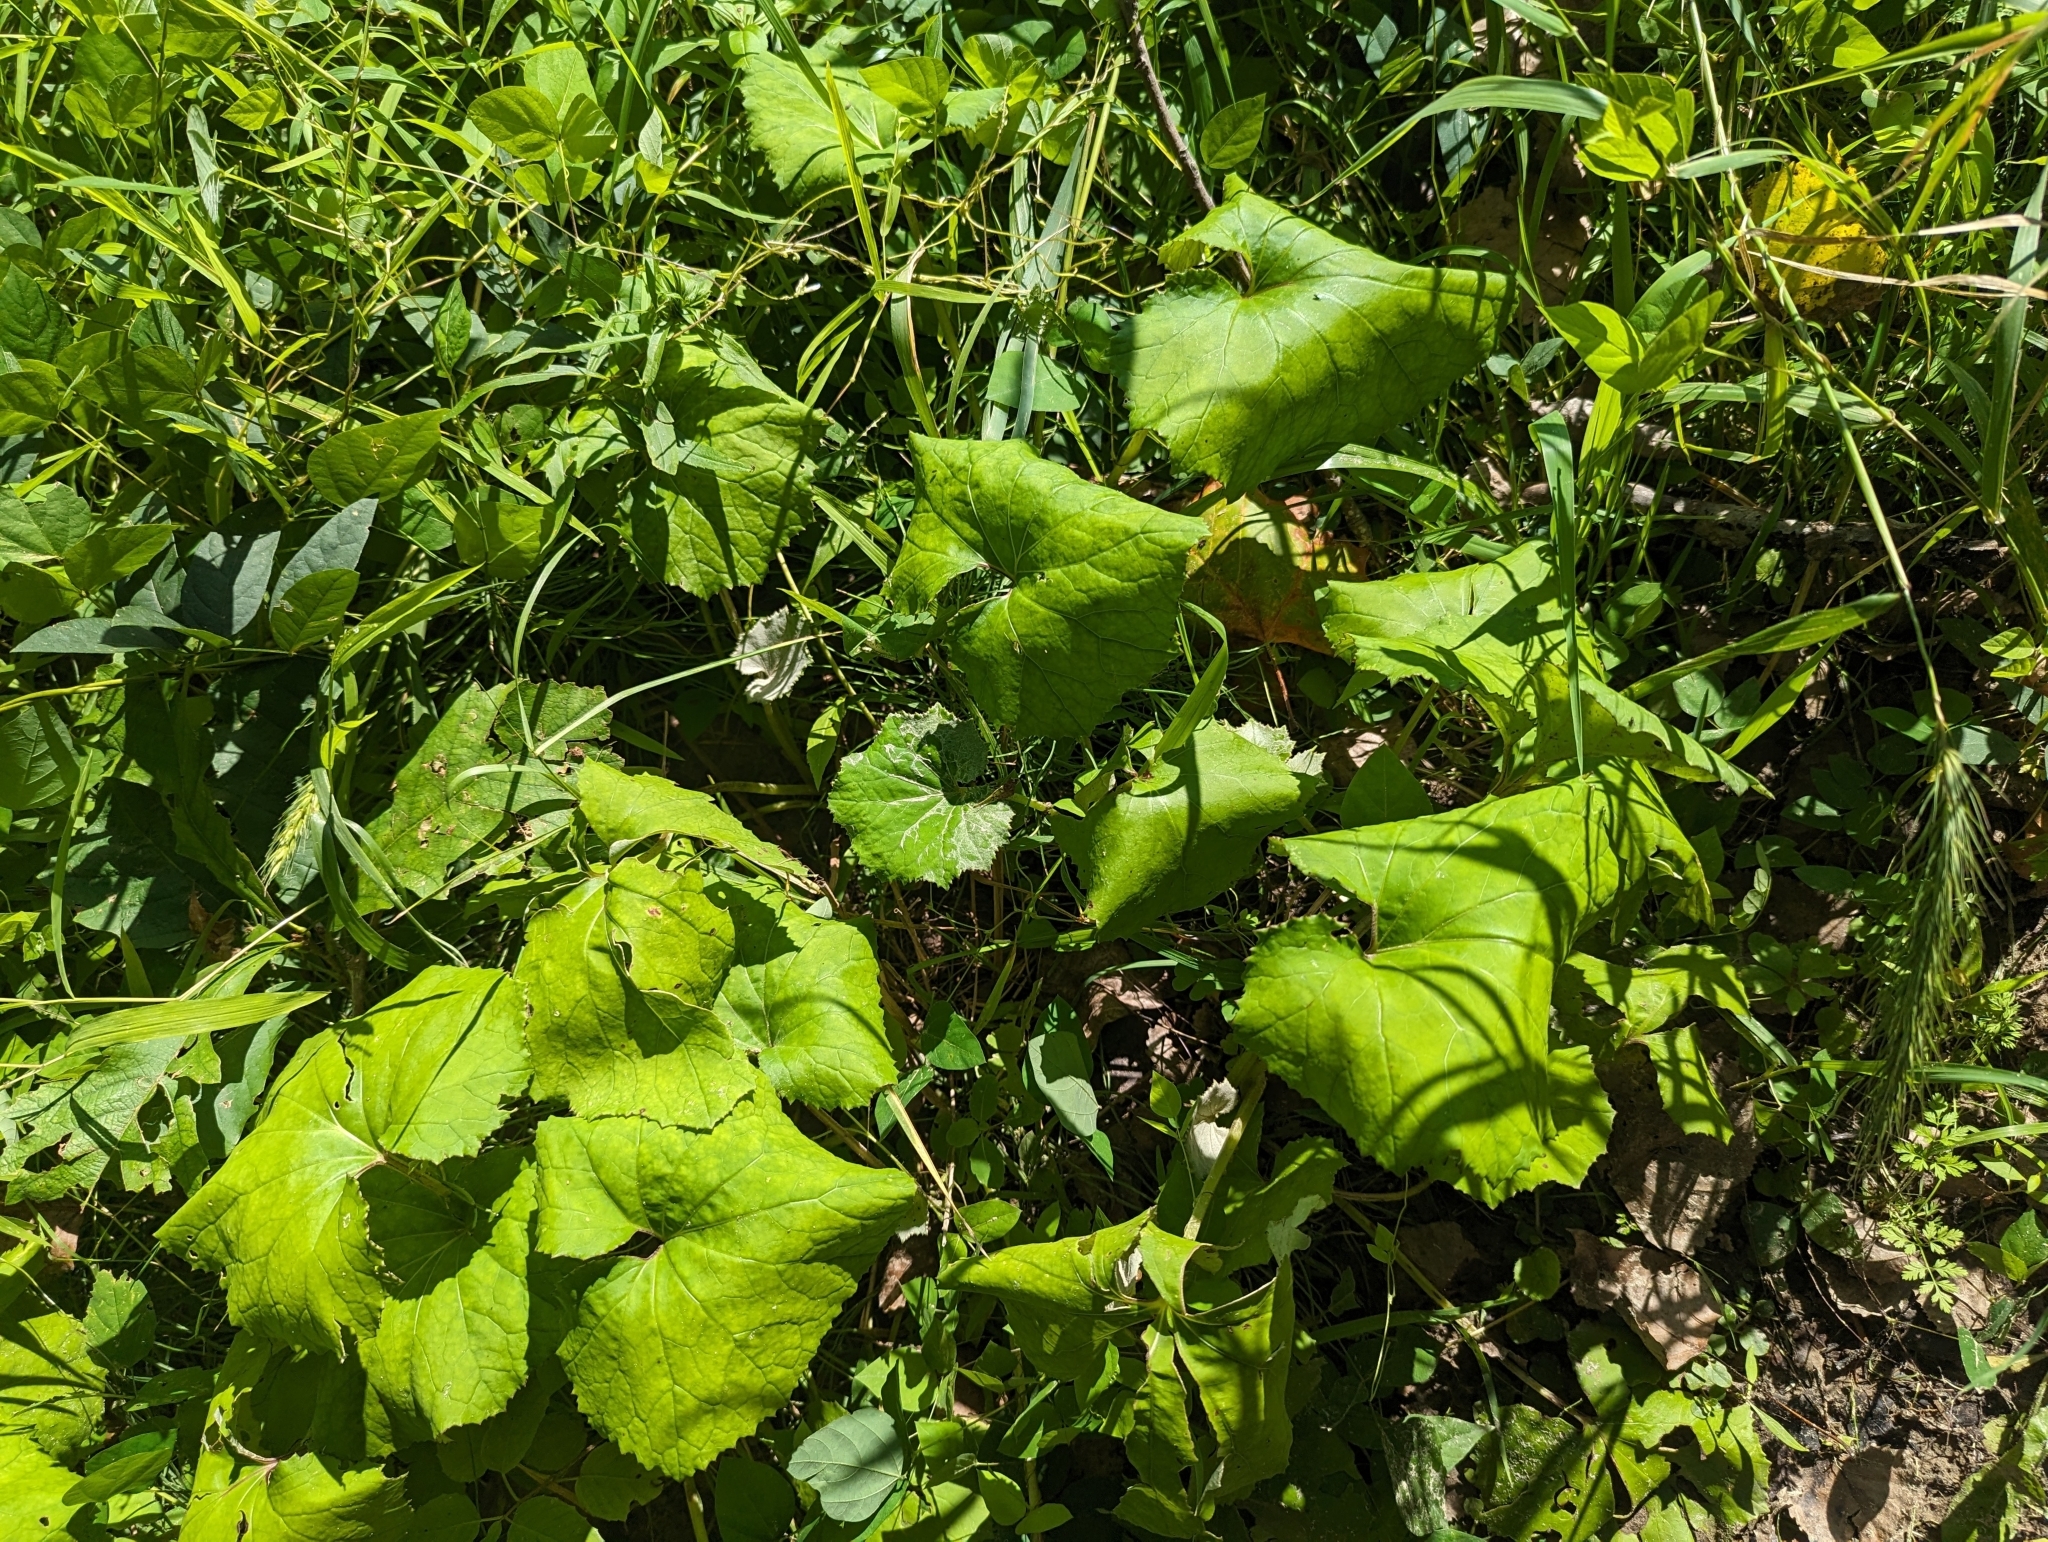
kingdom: Plantae
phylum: Tracheophyta
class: Magnoliopsida
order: Asterales
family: Asteraceae
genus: Tussilago
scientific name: Tussilago farfara
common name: Coltsfoot
